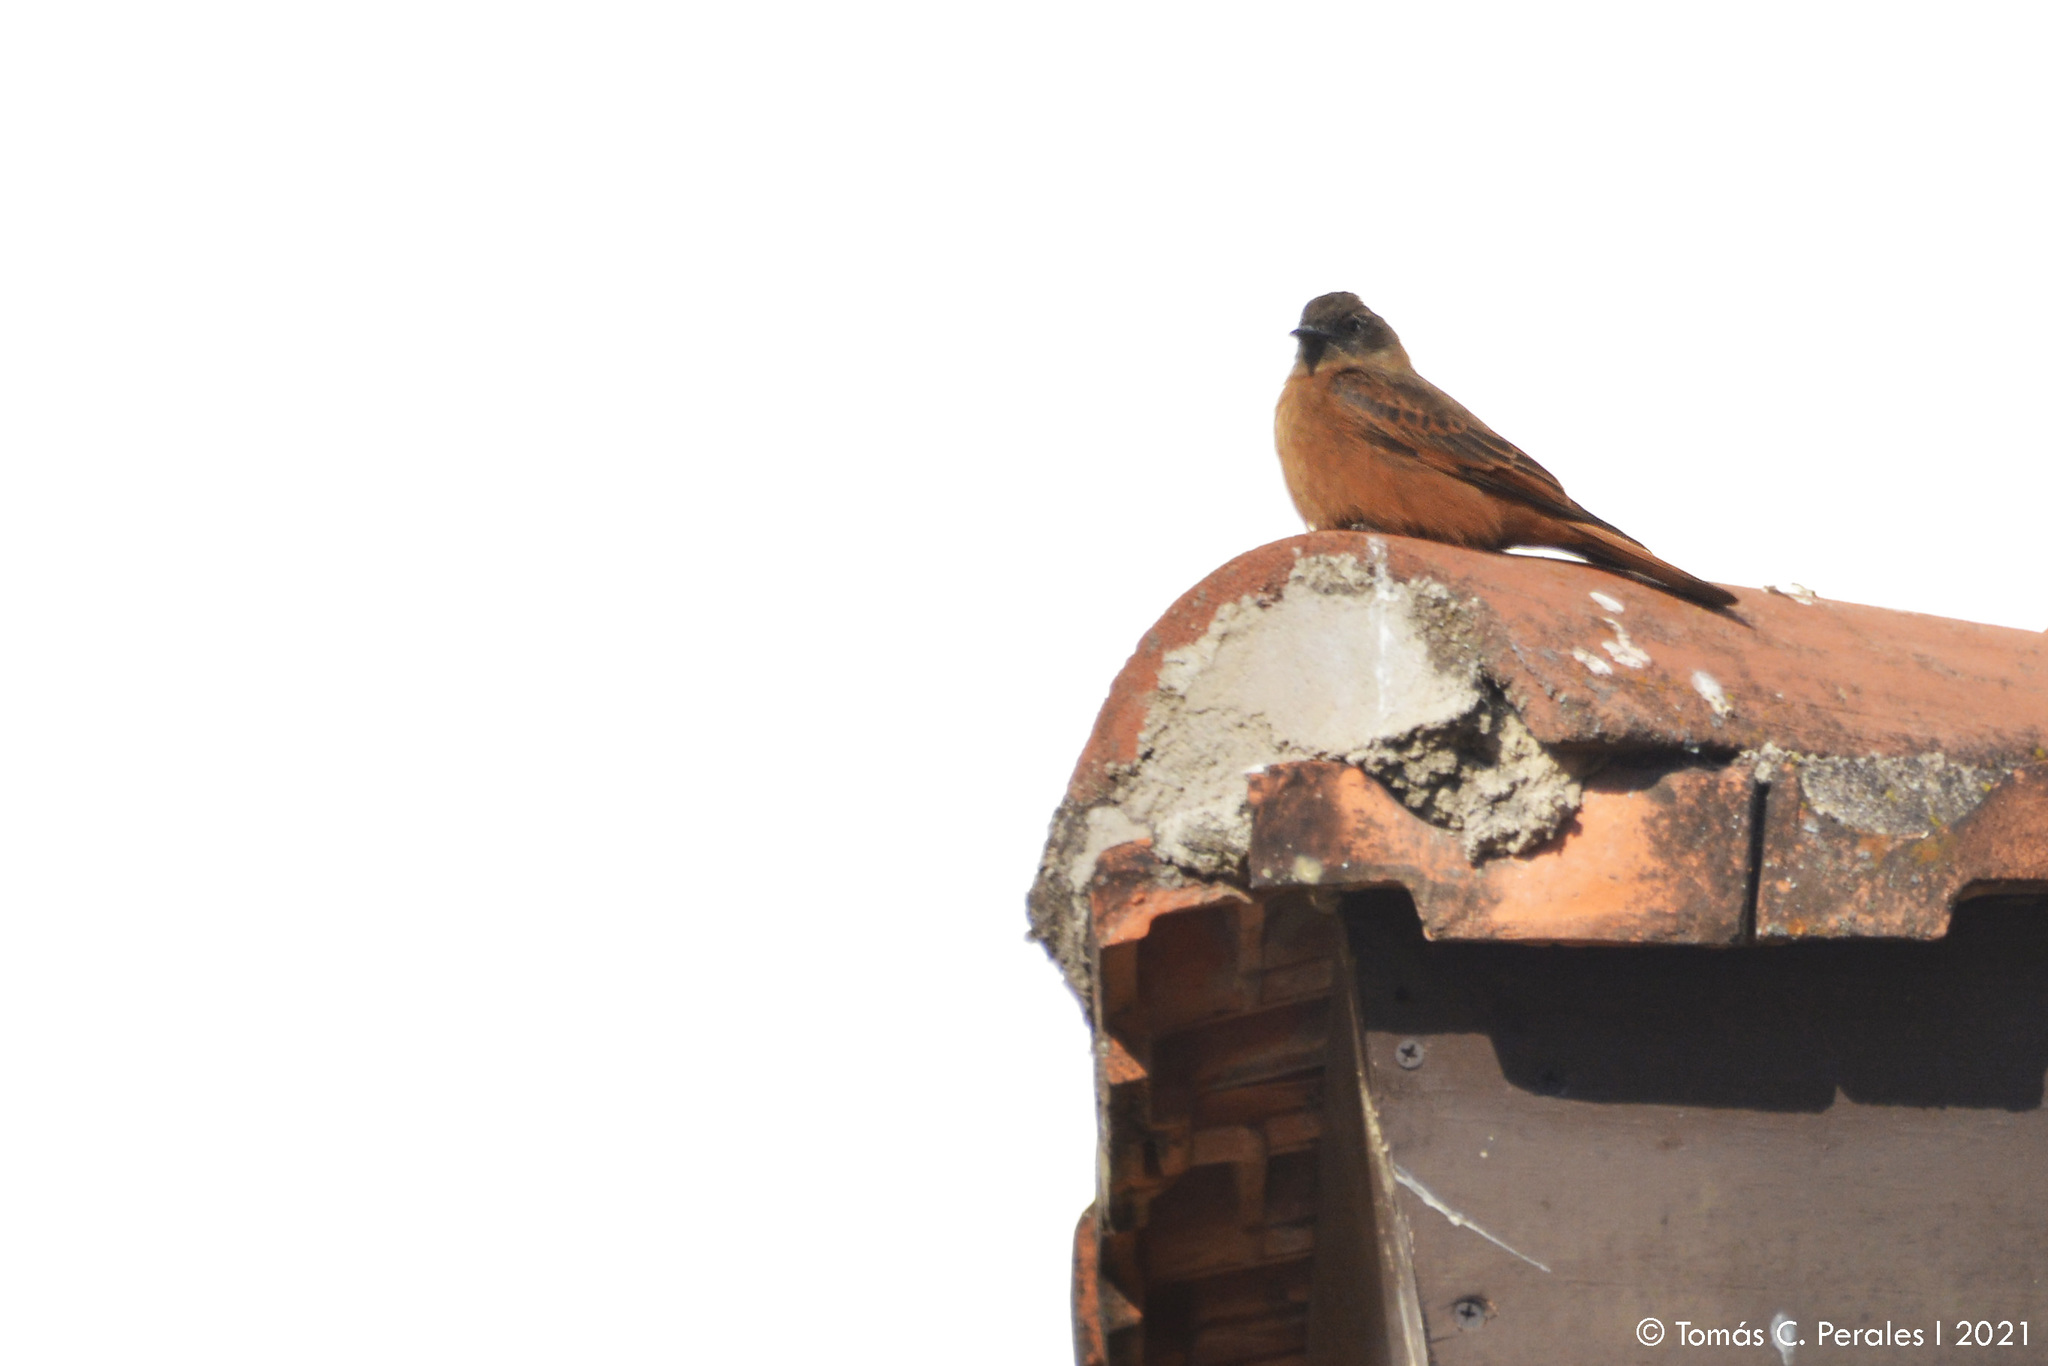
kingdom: Animalia
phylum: Chordata
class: Aves
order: Passeriformes
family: Tyrannidae
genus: Hirundinea
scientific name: Hirundinea ferruginea
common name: Cliff flycatcher
